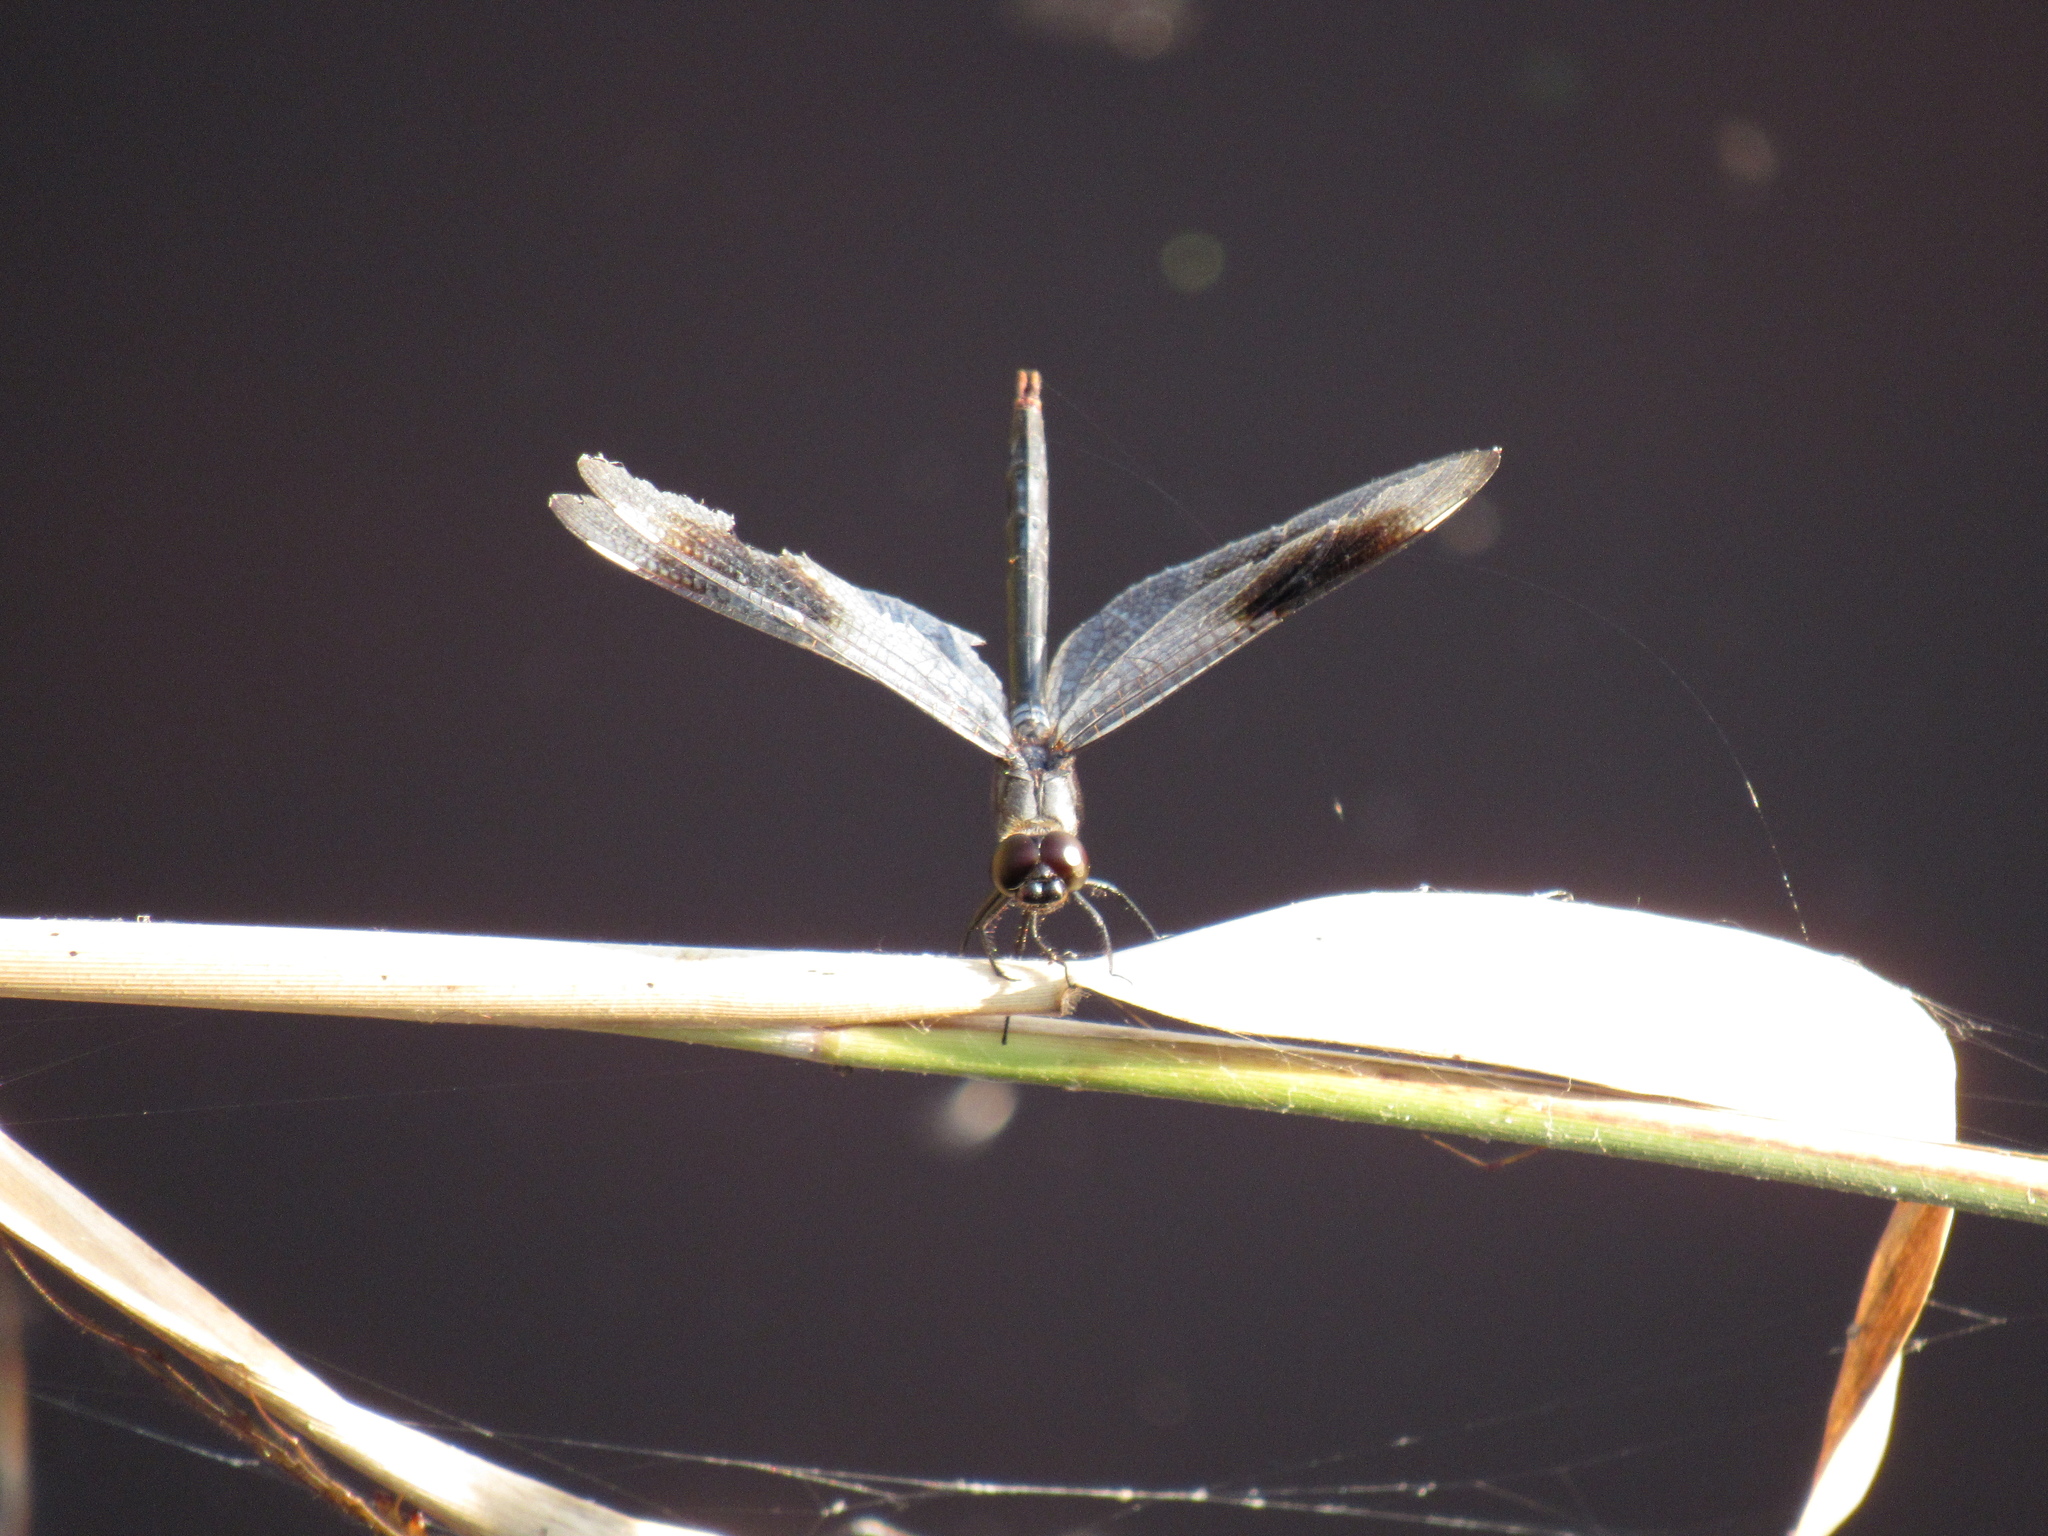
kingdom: Animalia
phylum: Arthropoda
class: Insecta
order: Odonata
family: Libellulidae
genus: Brachymesia
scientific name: Brachymesia gravida
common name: Four-spotted pennant
